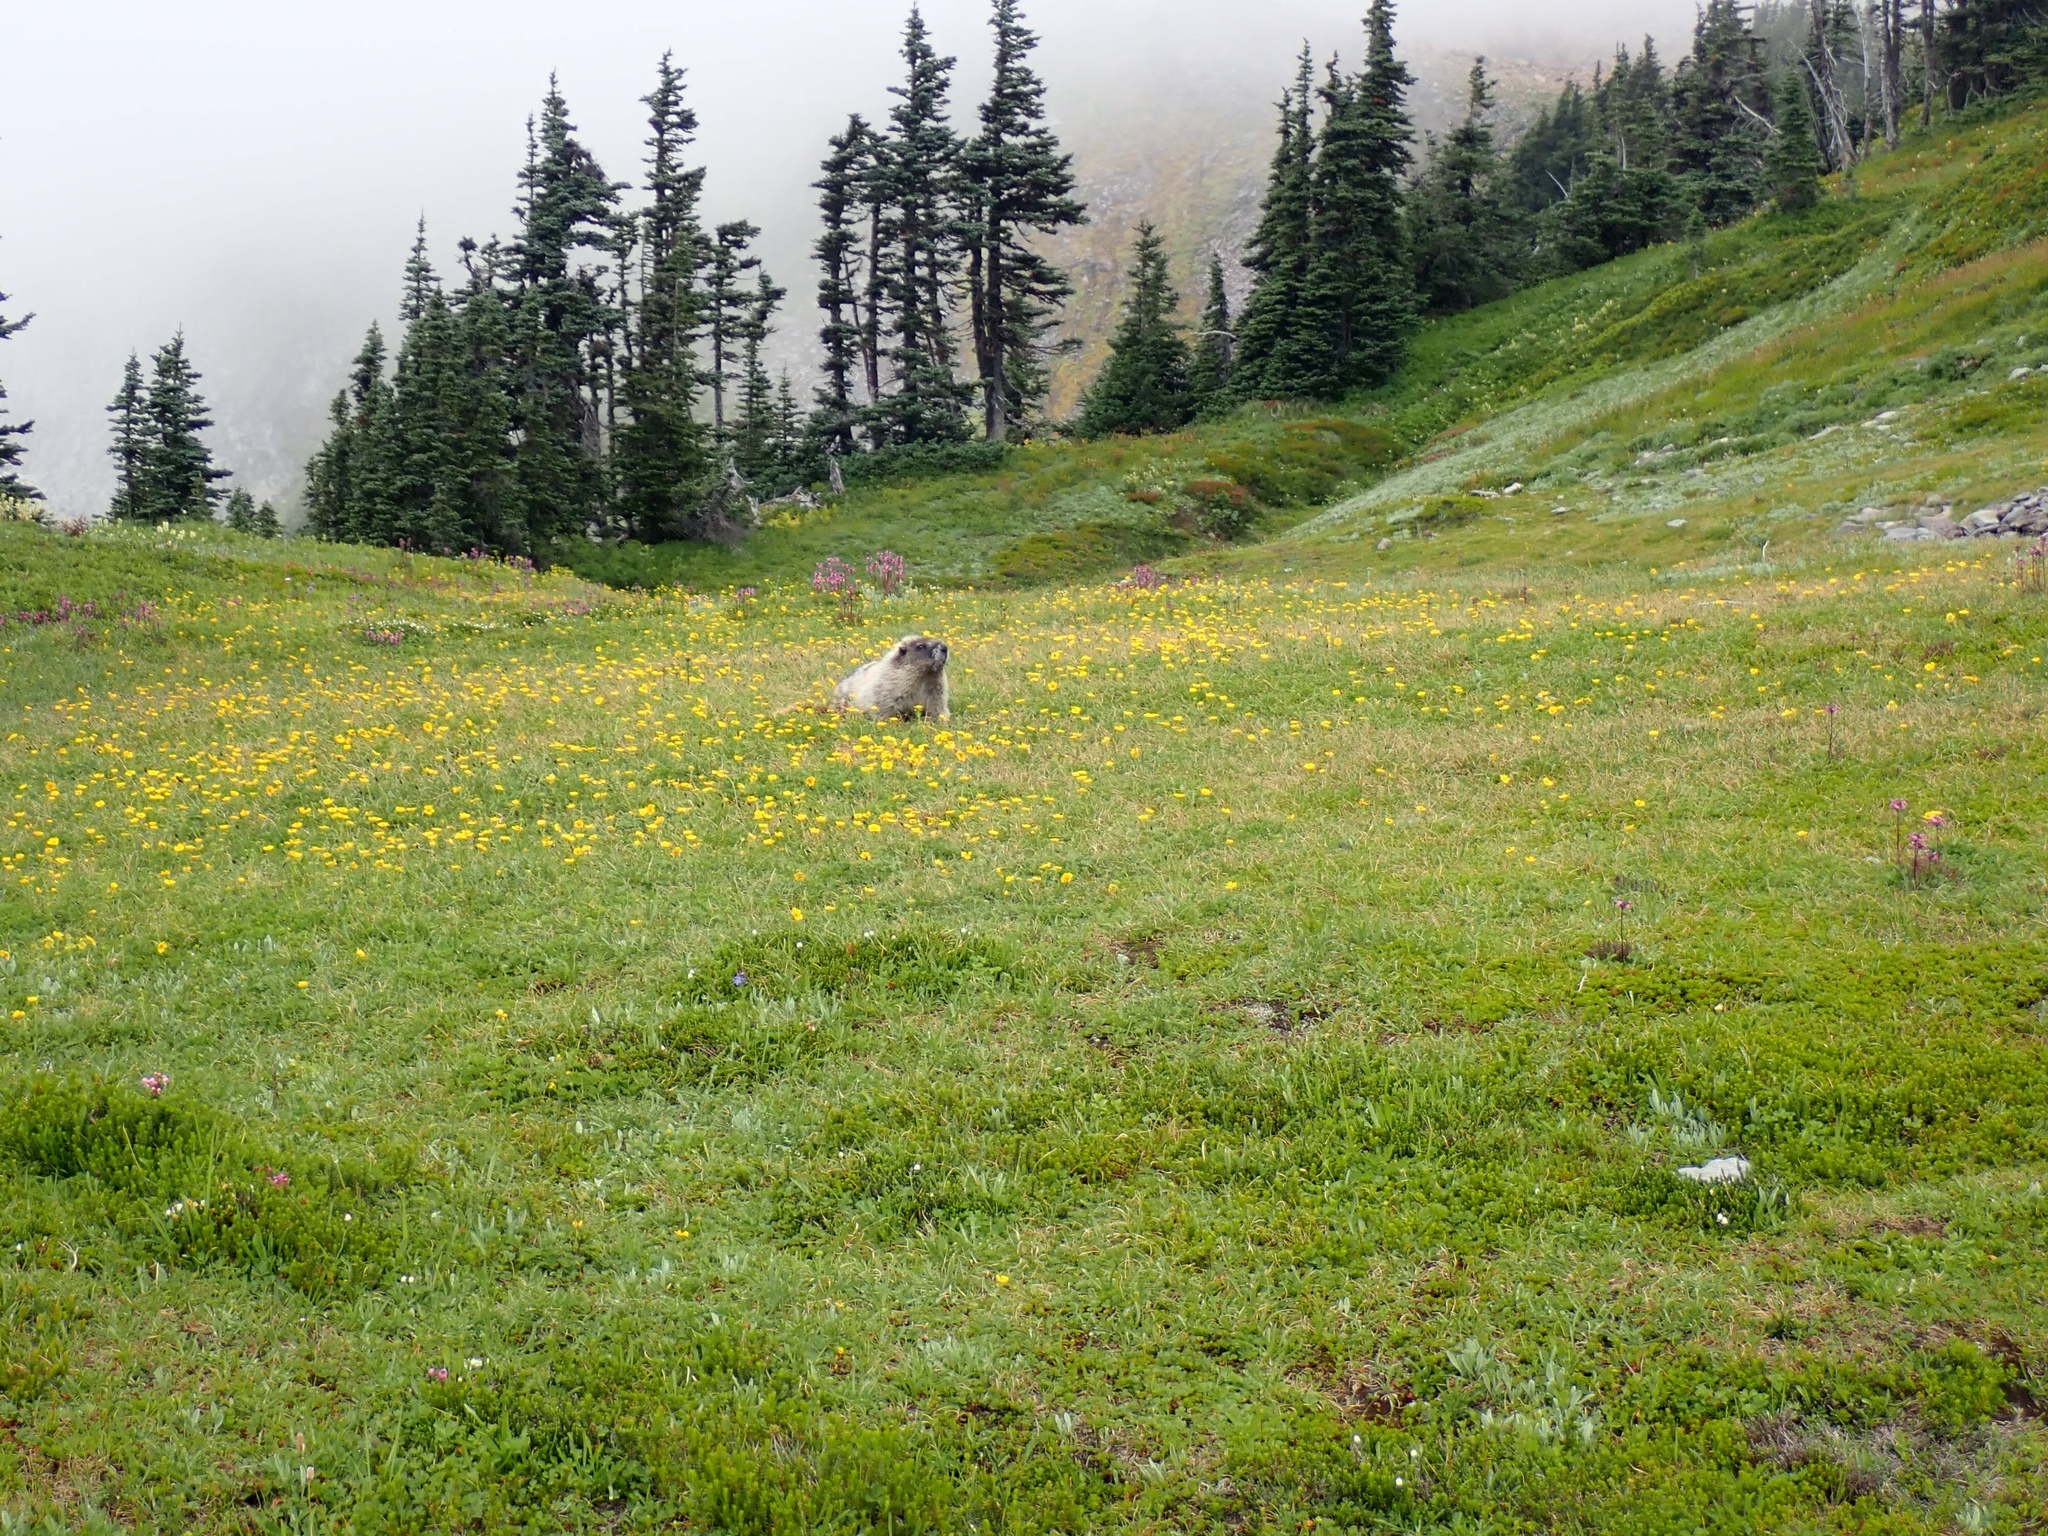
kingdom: Animalia
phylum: Chordata
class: Mammalia
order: Rodentia
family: Sciuridae
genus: Marmota
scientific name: Marmota caligata
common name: Hoary marmot
